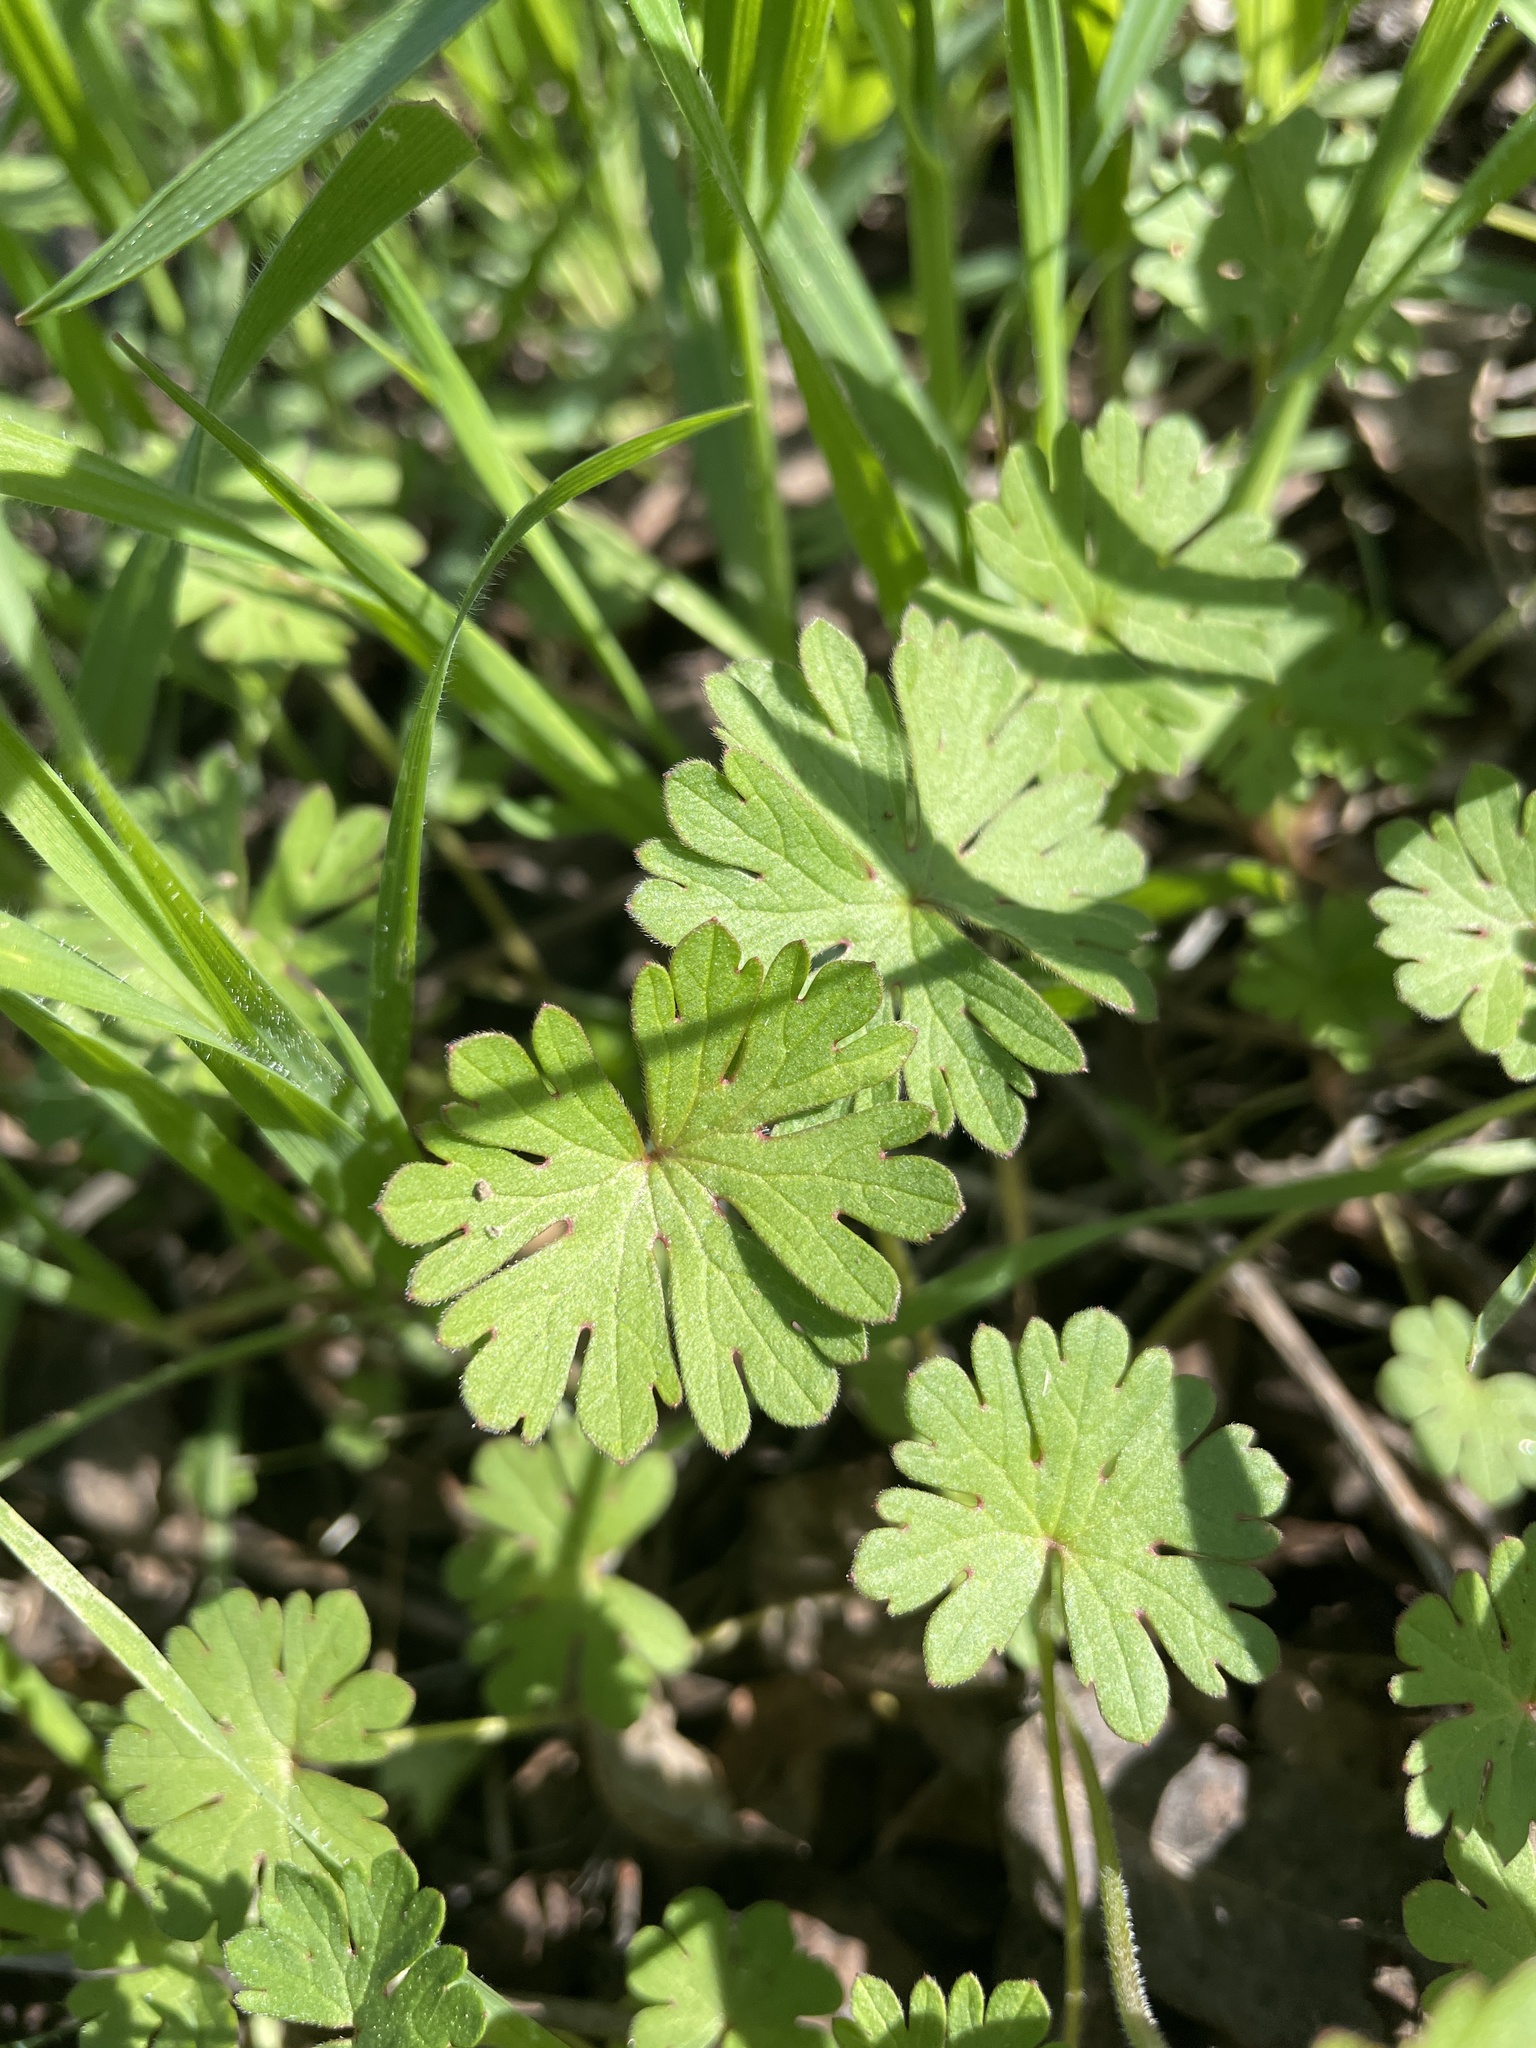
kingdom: Plantae
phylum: Tracheophyta
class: Magnoliopsida
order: Geraniales
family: Geraniaceae
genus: Geranium
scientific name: Geranium
